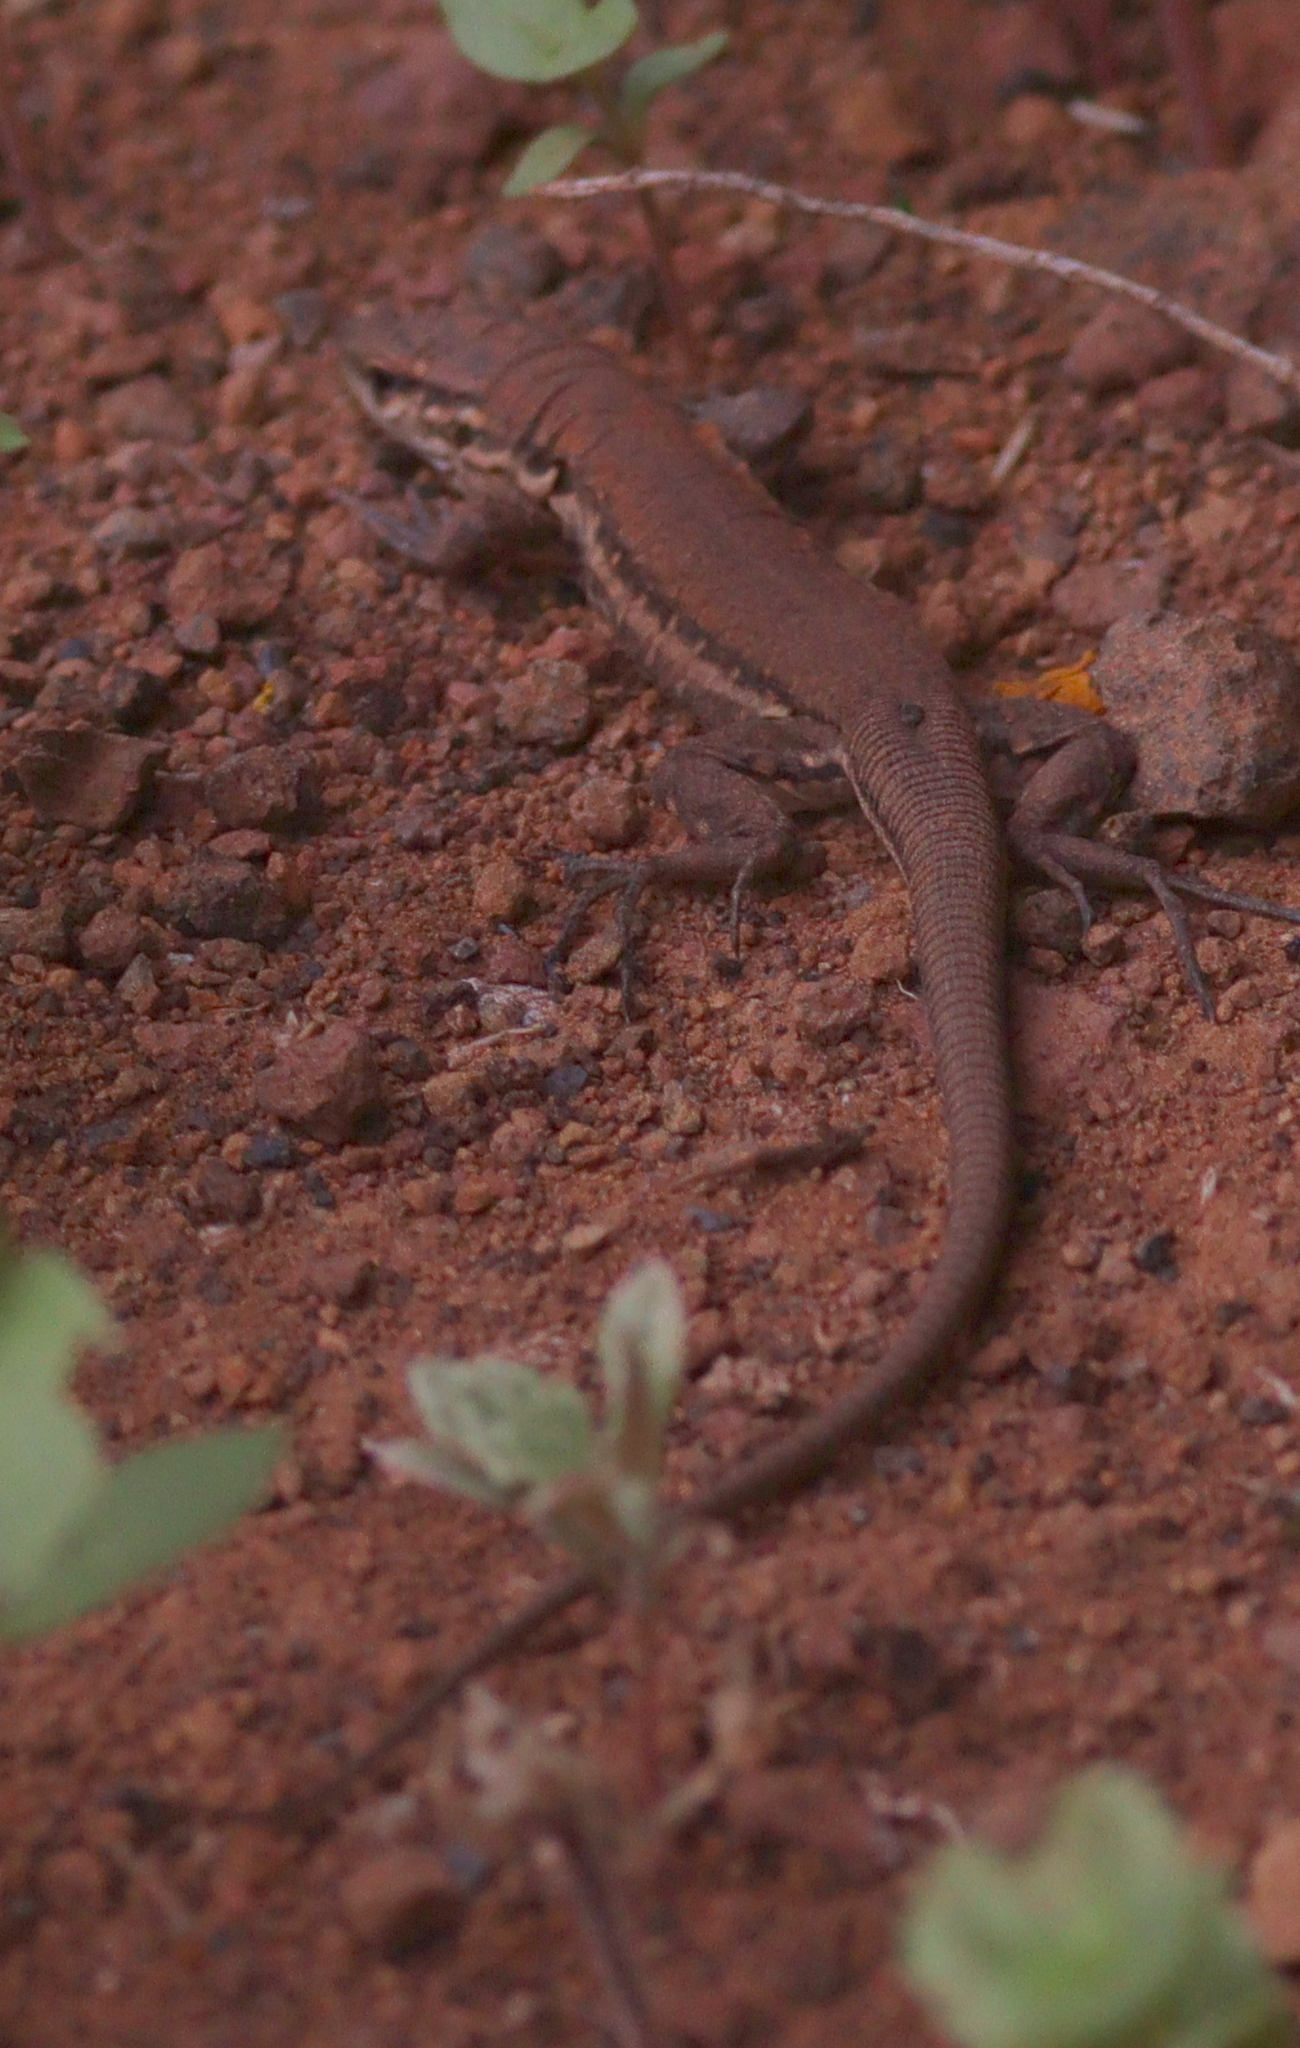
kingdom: Animalia
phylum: Chordata
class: Squamata
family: Lacertidae
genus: Gallotia
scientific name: Gallotia galloti
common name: Gallot's lizard
